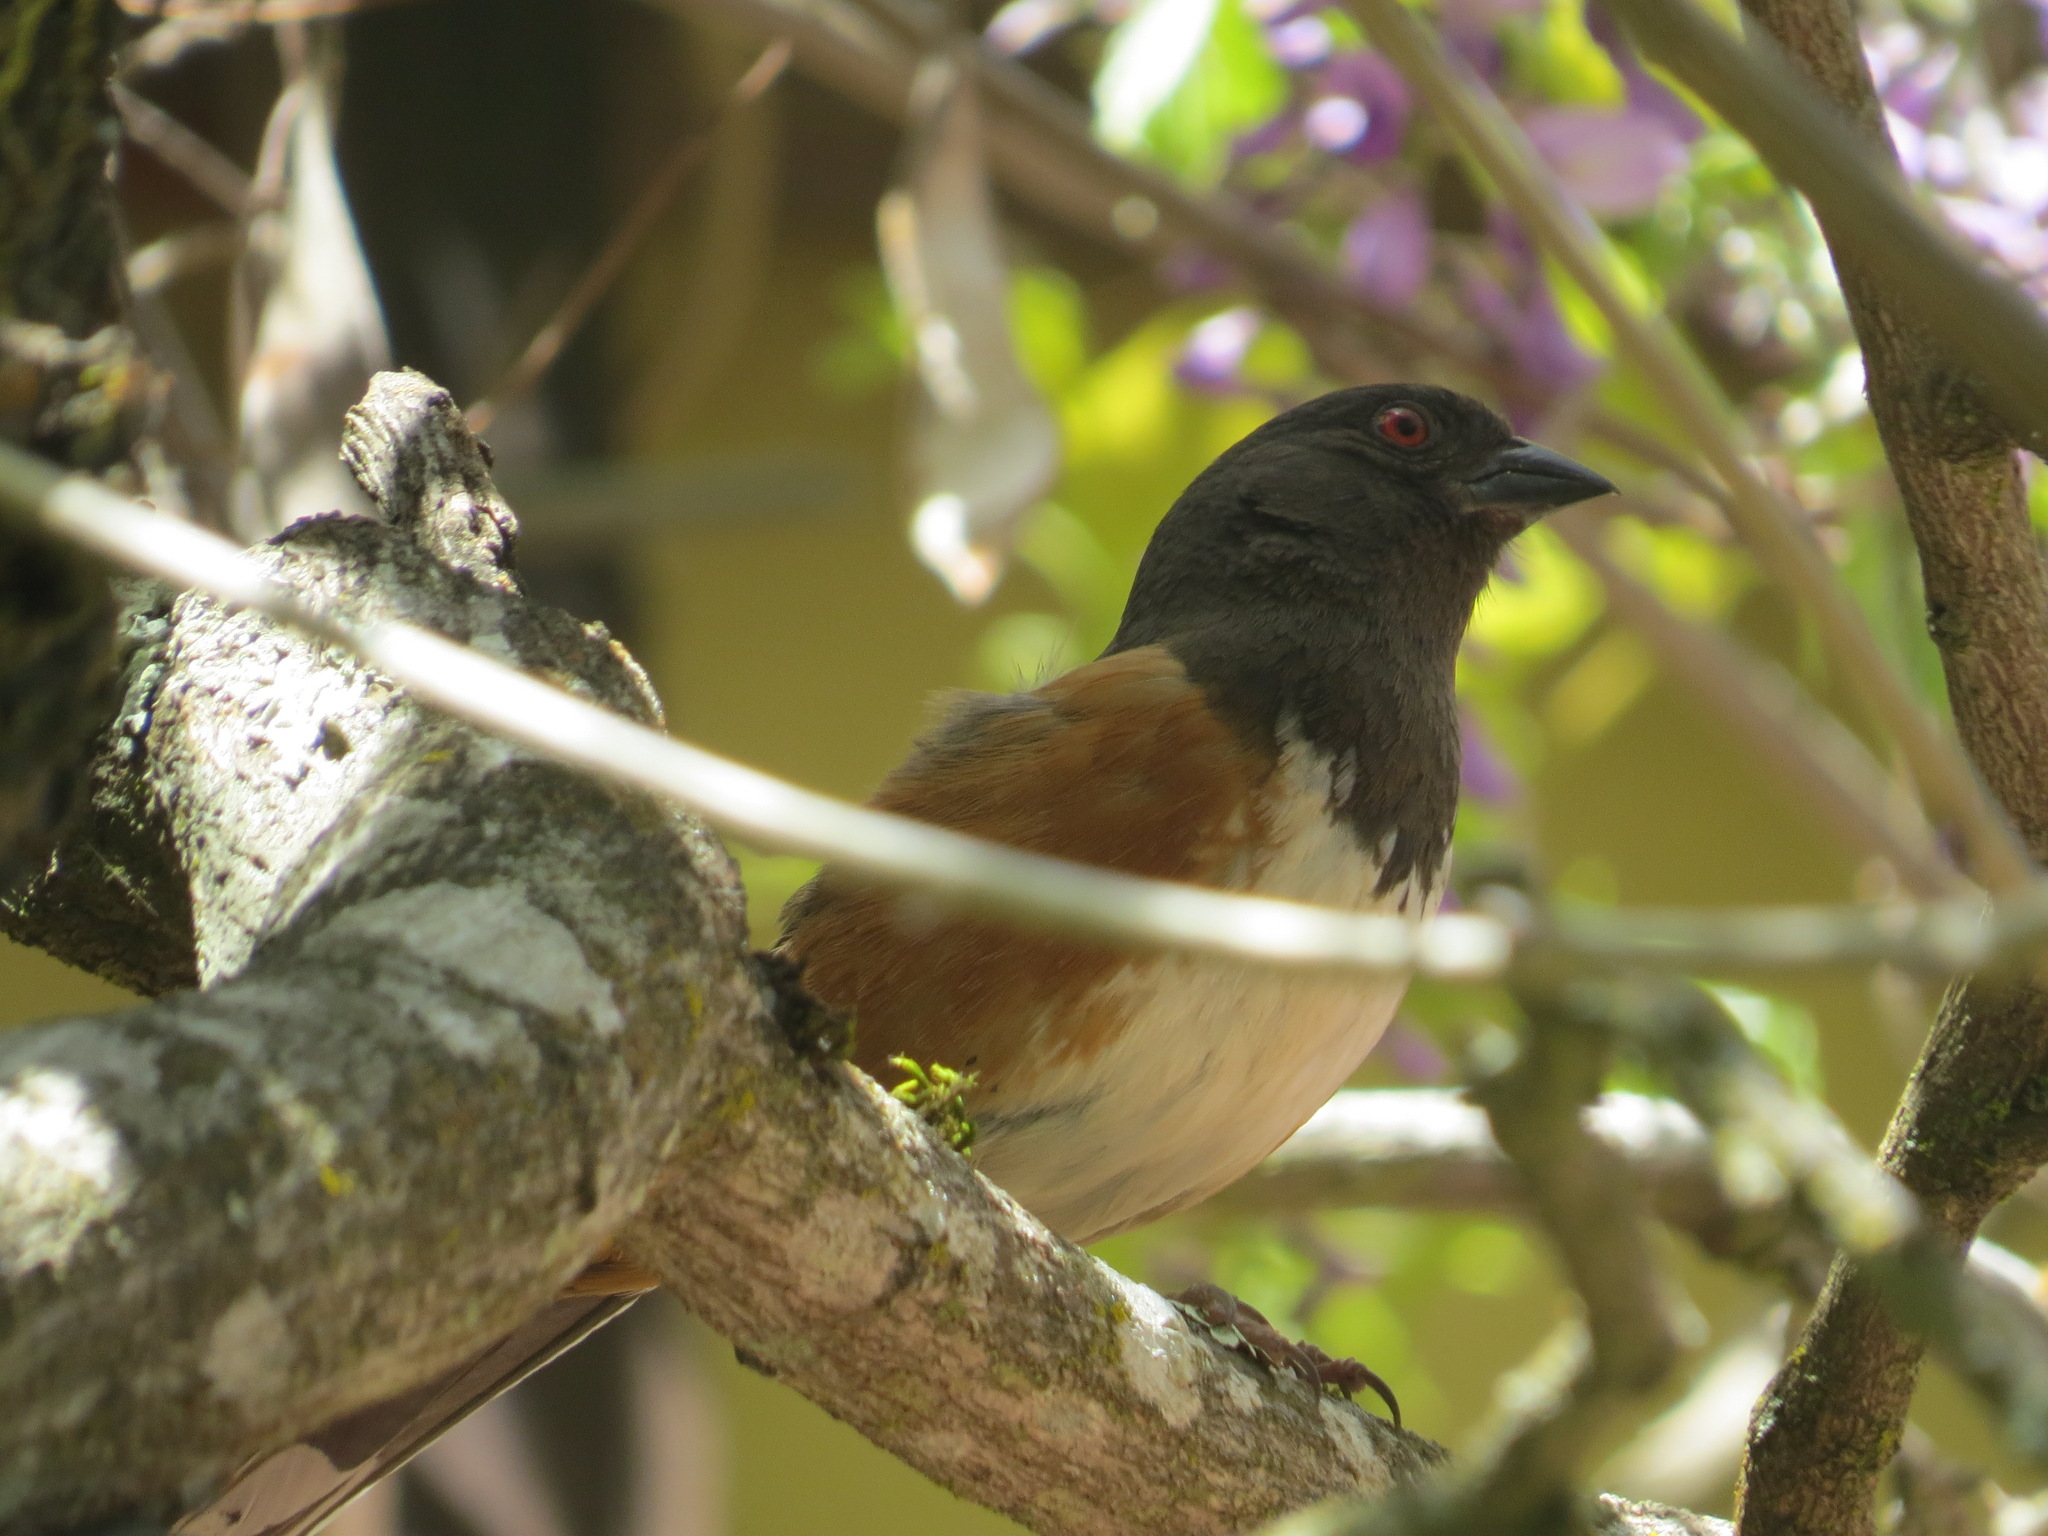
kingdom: Animalia
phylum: Chordata
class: Aves
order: Passeriformes
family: Passerellidae
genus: Pipilo
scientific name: Pipilo maculatus
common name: Spotted towhee
